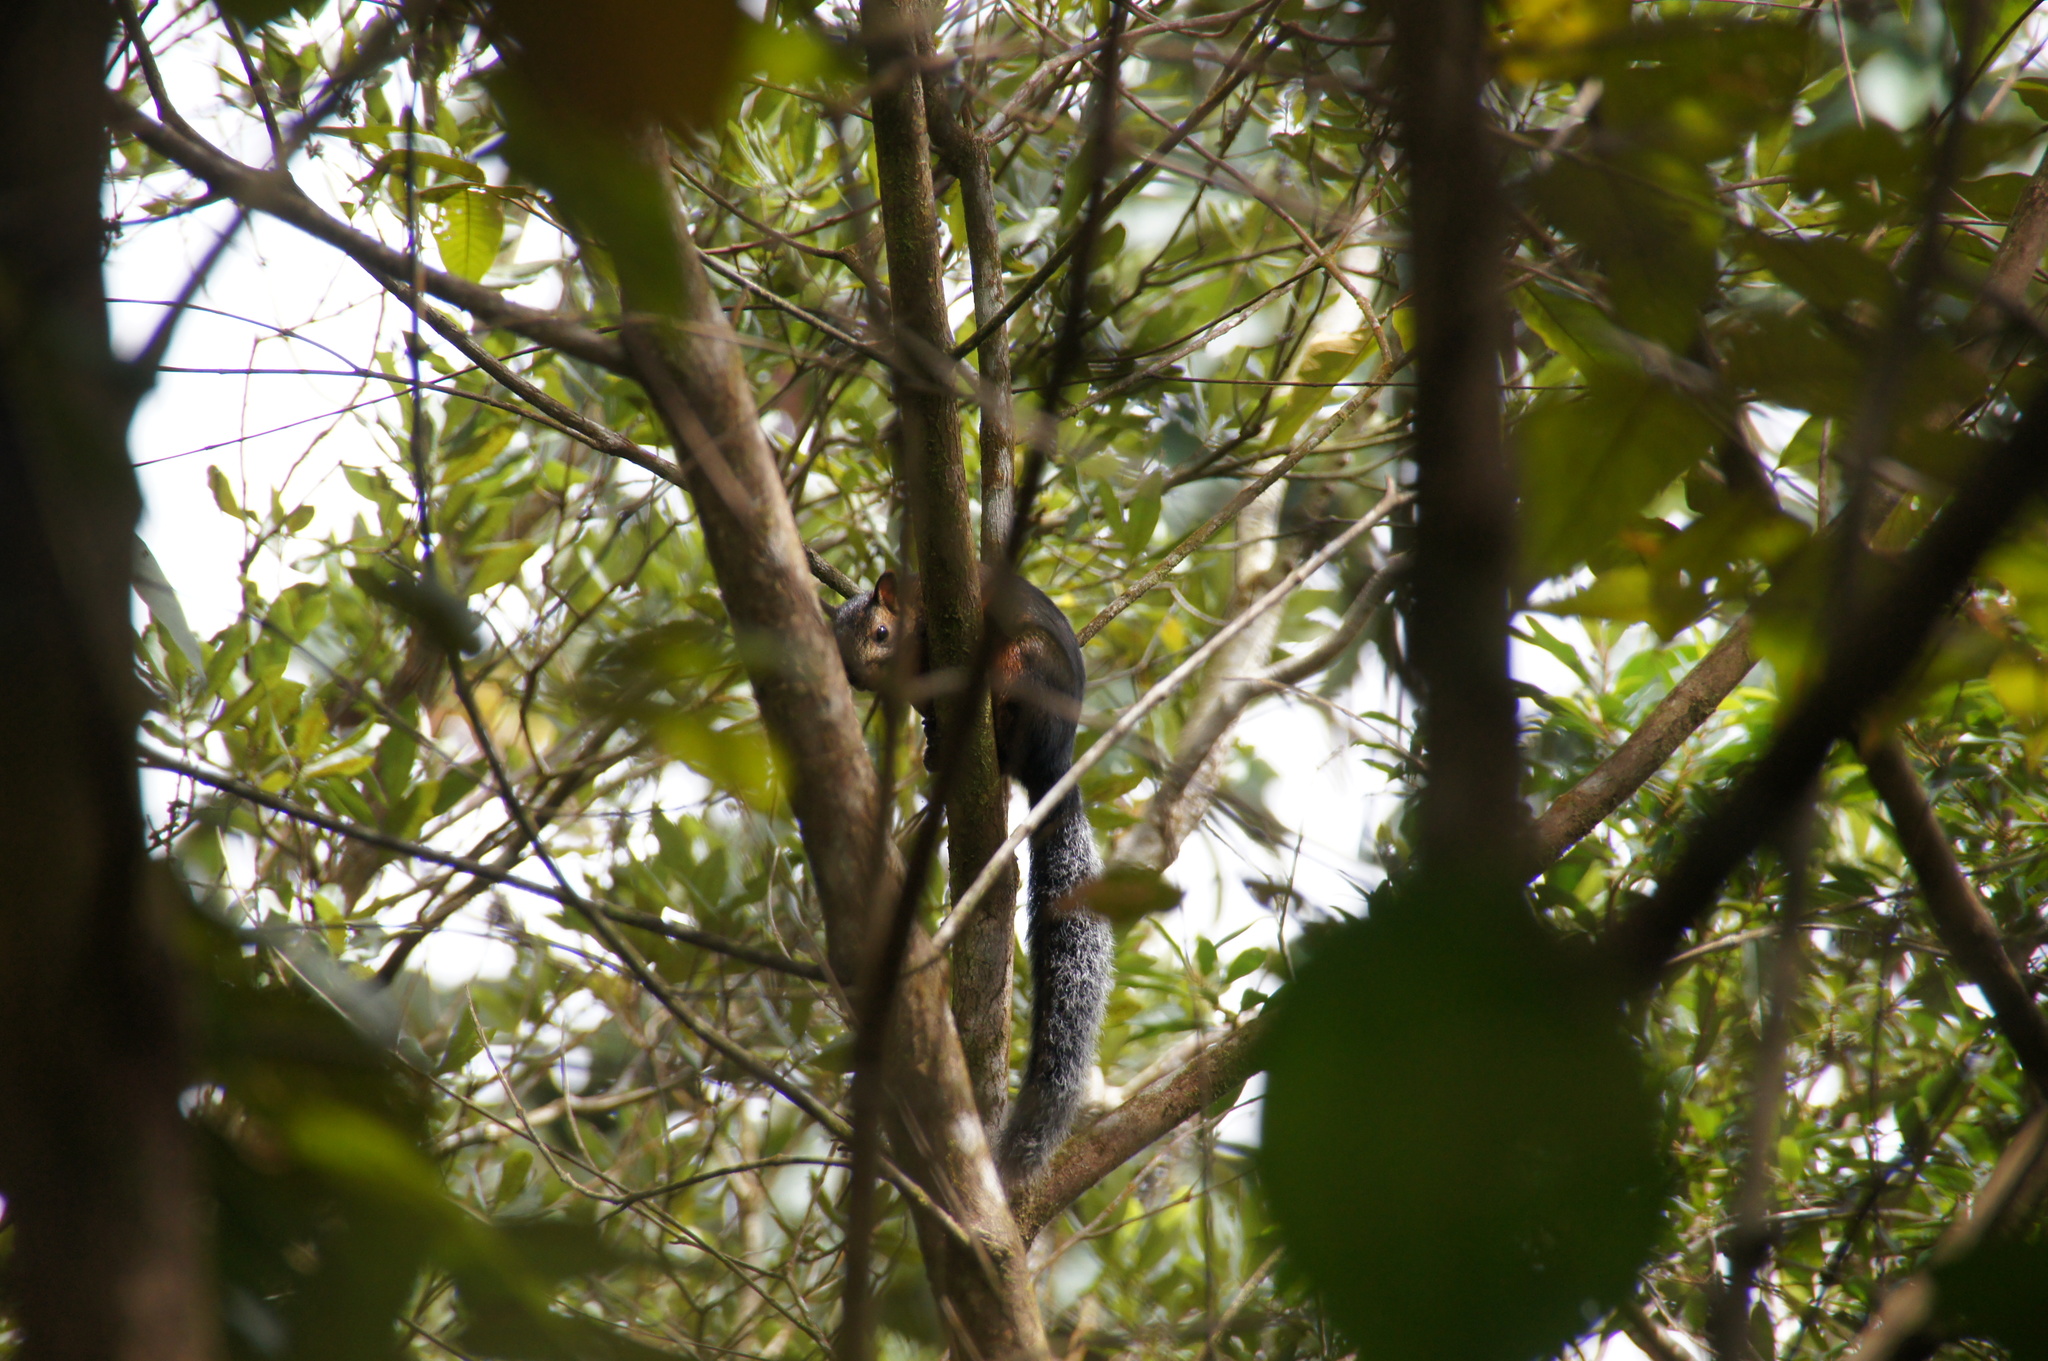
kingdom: Animalia
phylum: Chordata
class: Mammalia
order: Rodentia
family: Sciuridae
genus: Sciurus
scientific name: Sciurus variegatoides
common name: Variegated squirrel
